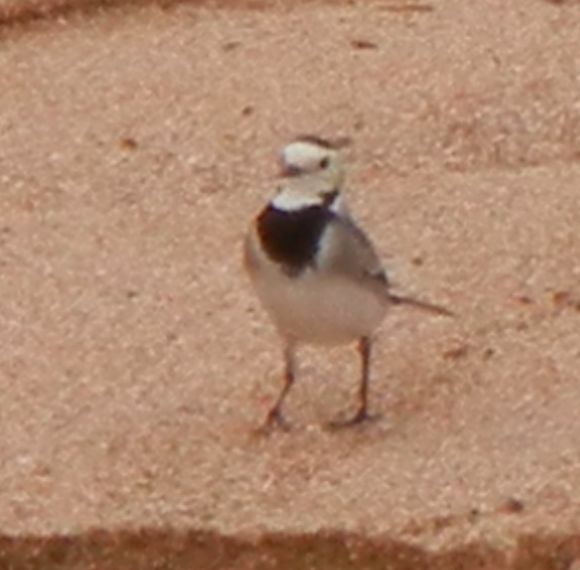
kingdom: Animalia
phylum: Chordata
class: Aves
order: Passeriformes
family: Motacillidae
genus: Motacilla
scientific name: Motacilla alba
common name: White wagtail
